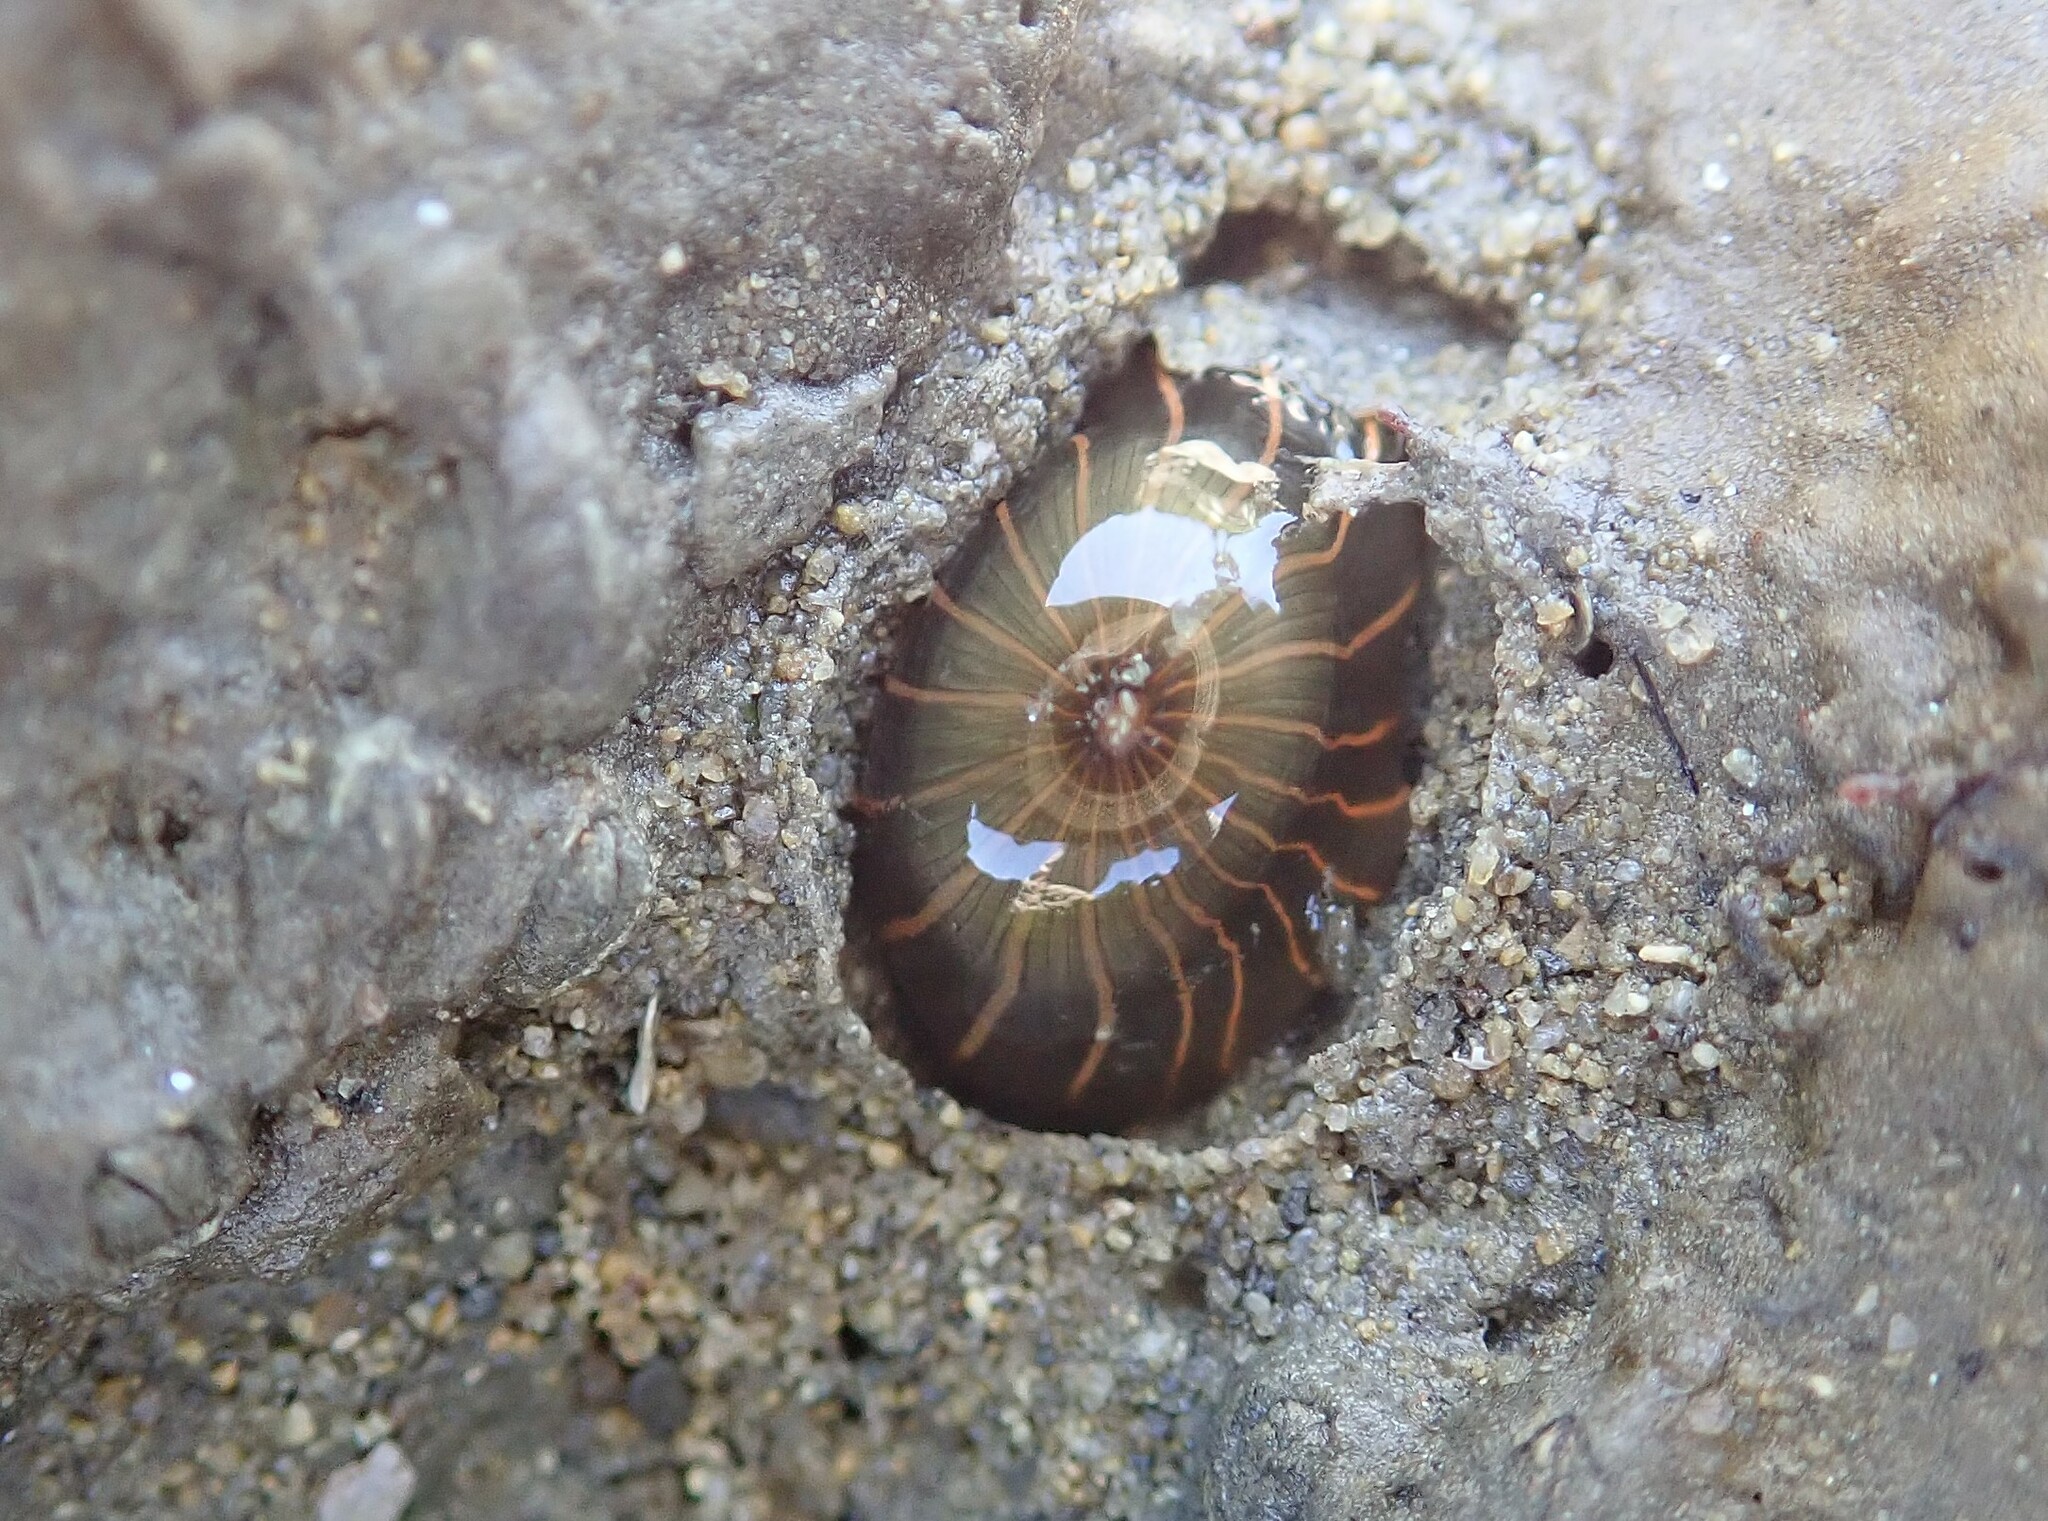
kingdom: Animalia
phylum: Cnidaria
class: Anthozoa
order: Actiniaria
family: Diadumenidae
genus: Diadumene
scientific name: Diadumene lineata
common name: Orange-striped anemone
